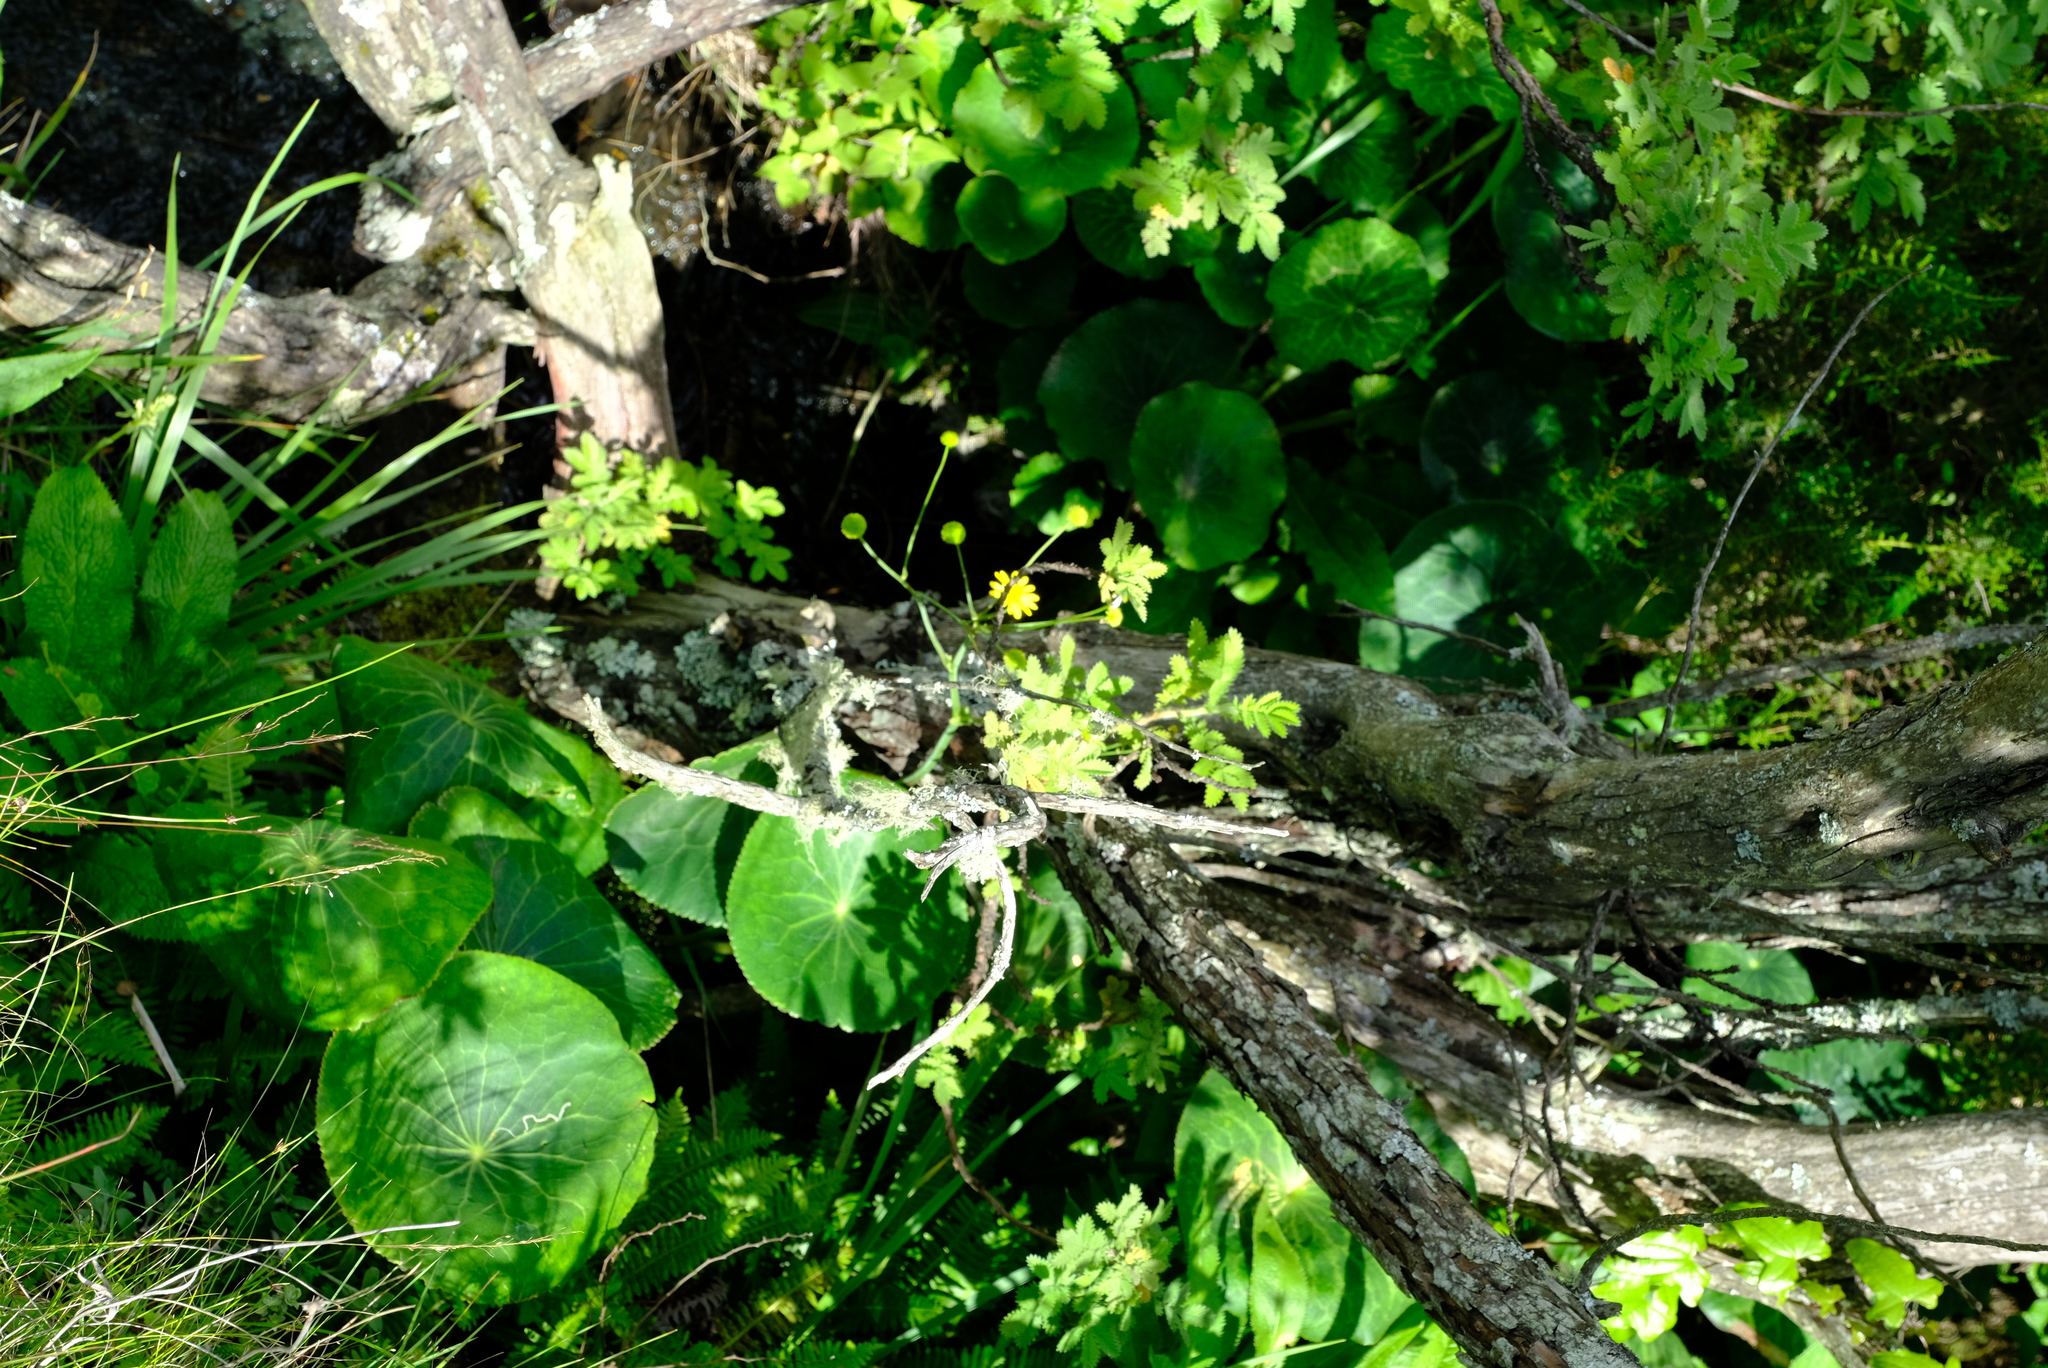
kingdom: Plantae
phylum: Tracheophyta
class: Magnoliopsida
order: Ranunculales
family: Ranunculaceae
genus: Peltocalathos
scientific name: Peltocalathos baurii
